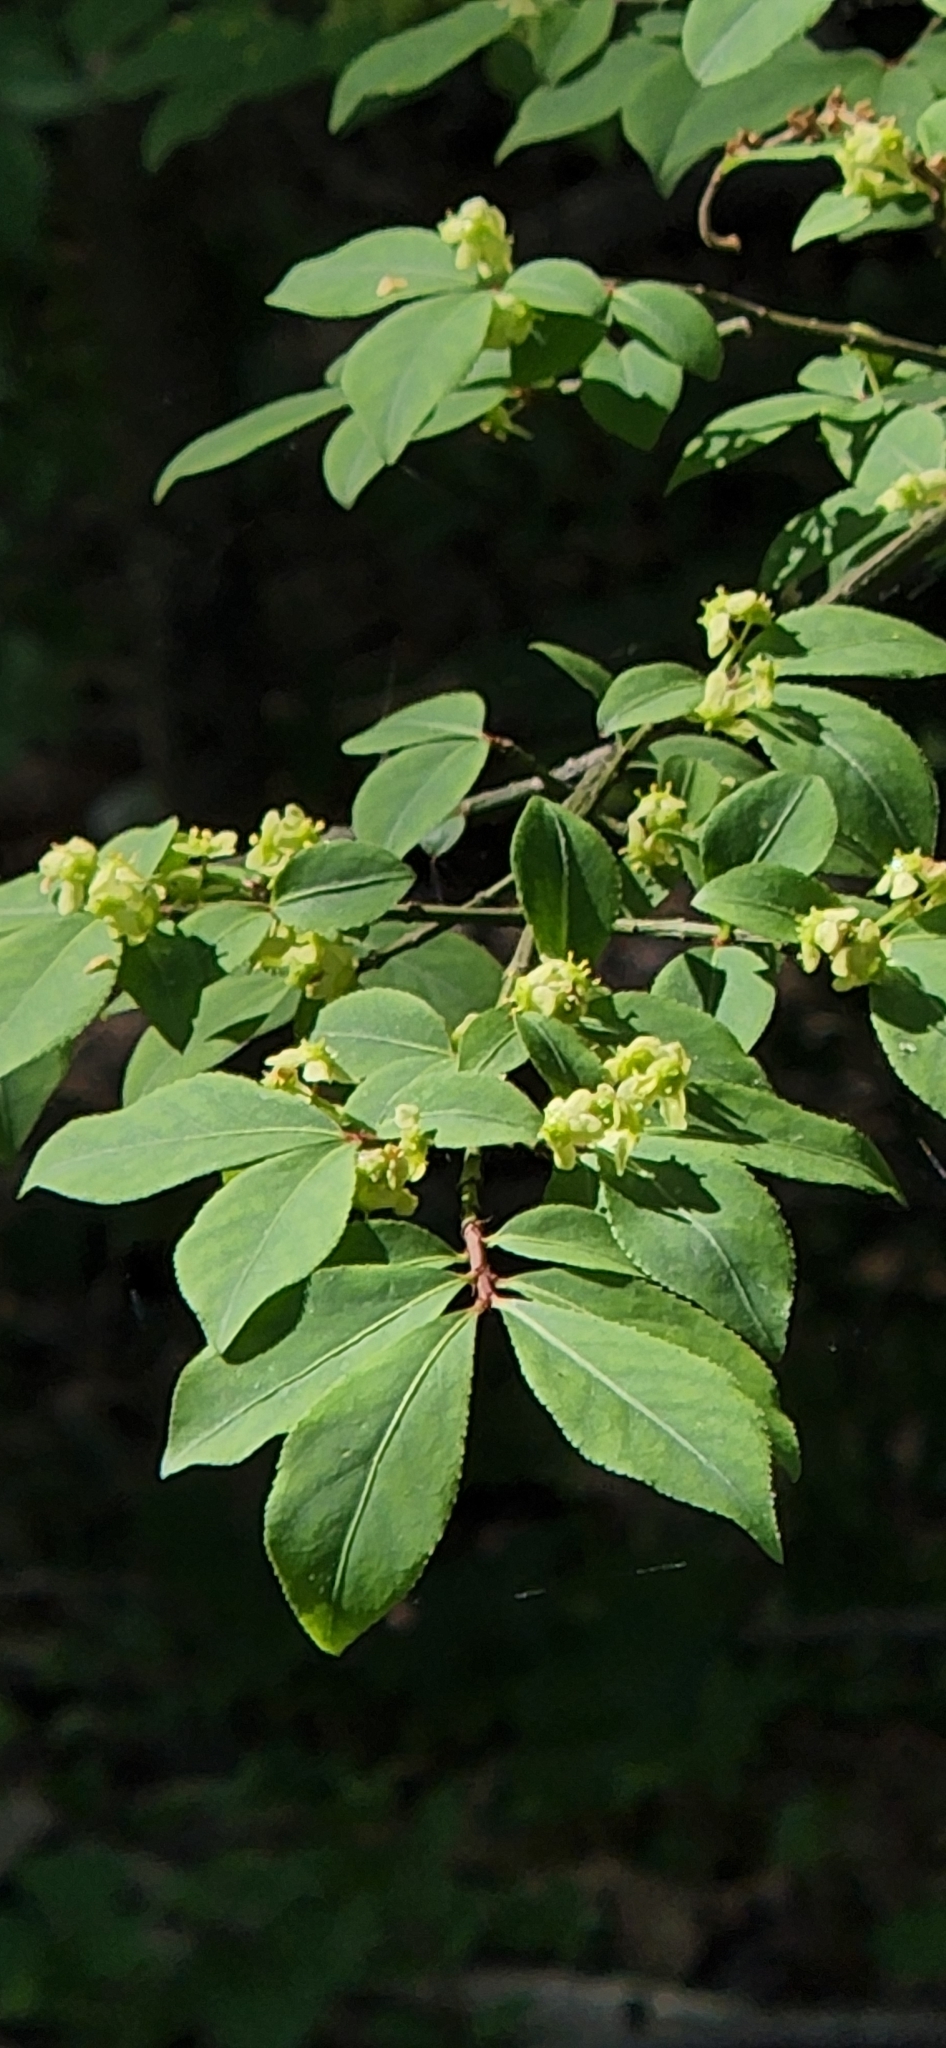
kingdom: Plantae
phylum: Tracheophyta
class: Magnoliopsida
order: Celastrales
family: Celastraceae
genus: Euonymus
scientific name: Euonymus alatus
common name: Winged euonymus
